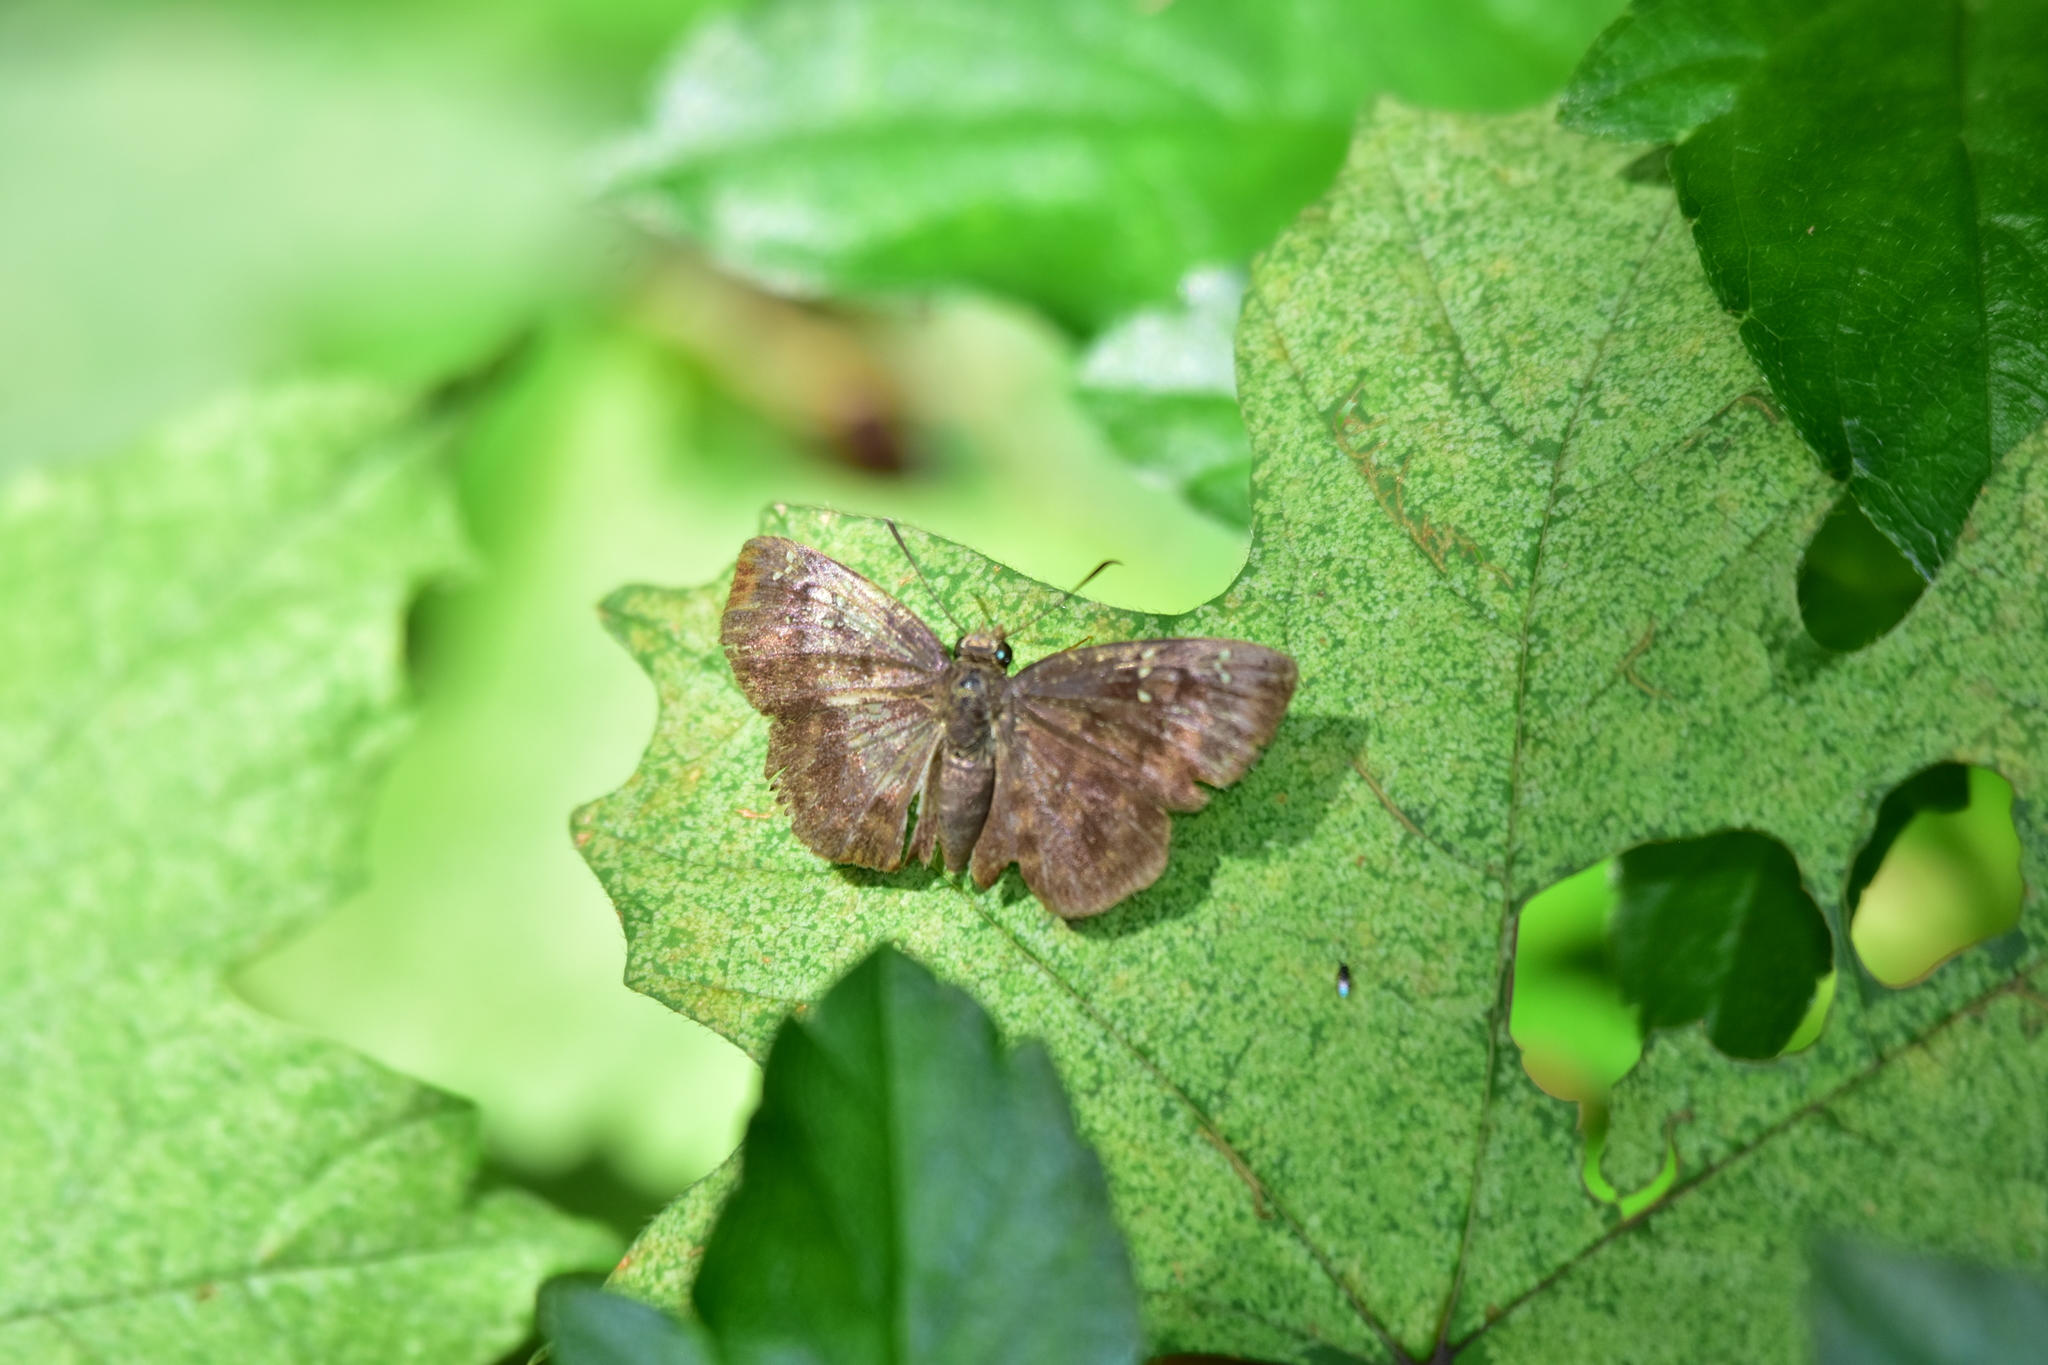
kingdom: Animalia
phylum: Arthropoda
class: Insecta
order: Lepidoptera
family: Hesperiidae
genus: Sarangesa
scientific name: Sarangesa dasahara
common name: Common small flat
